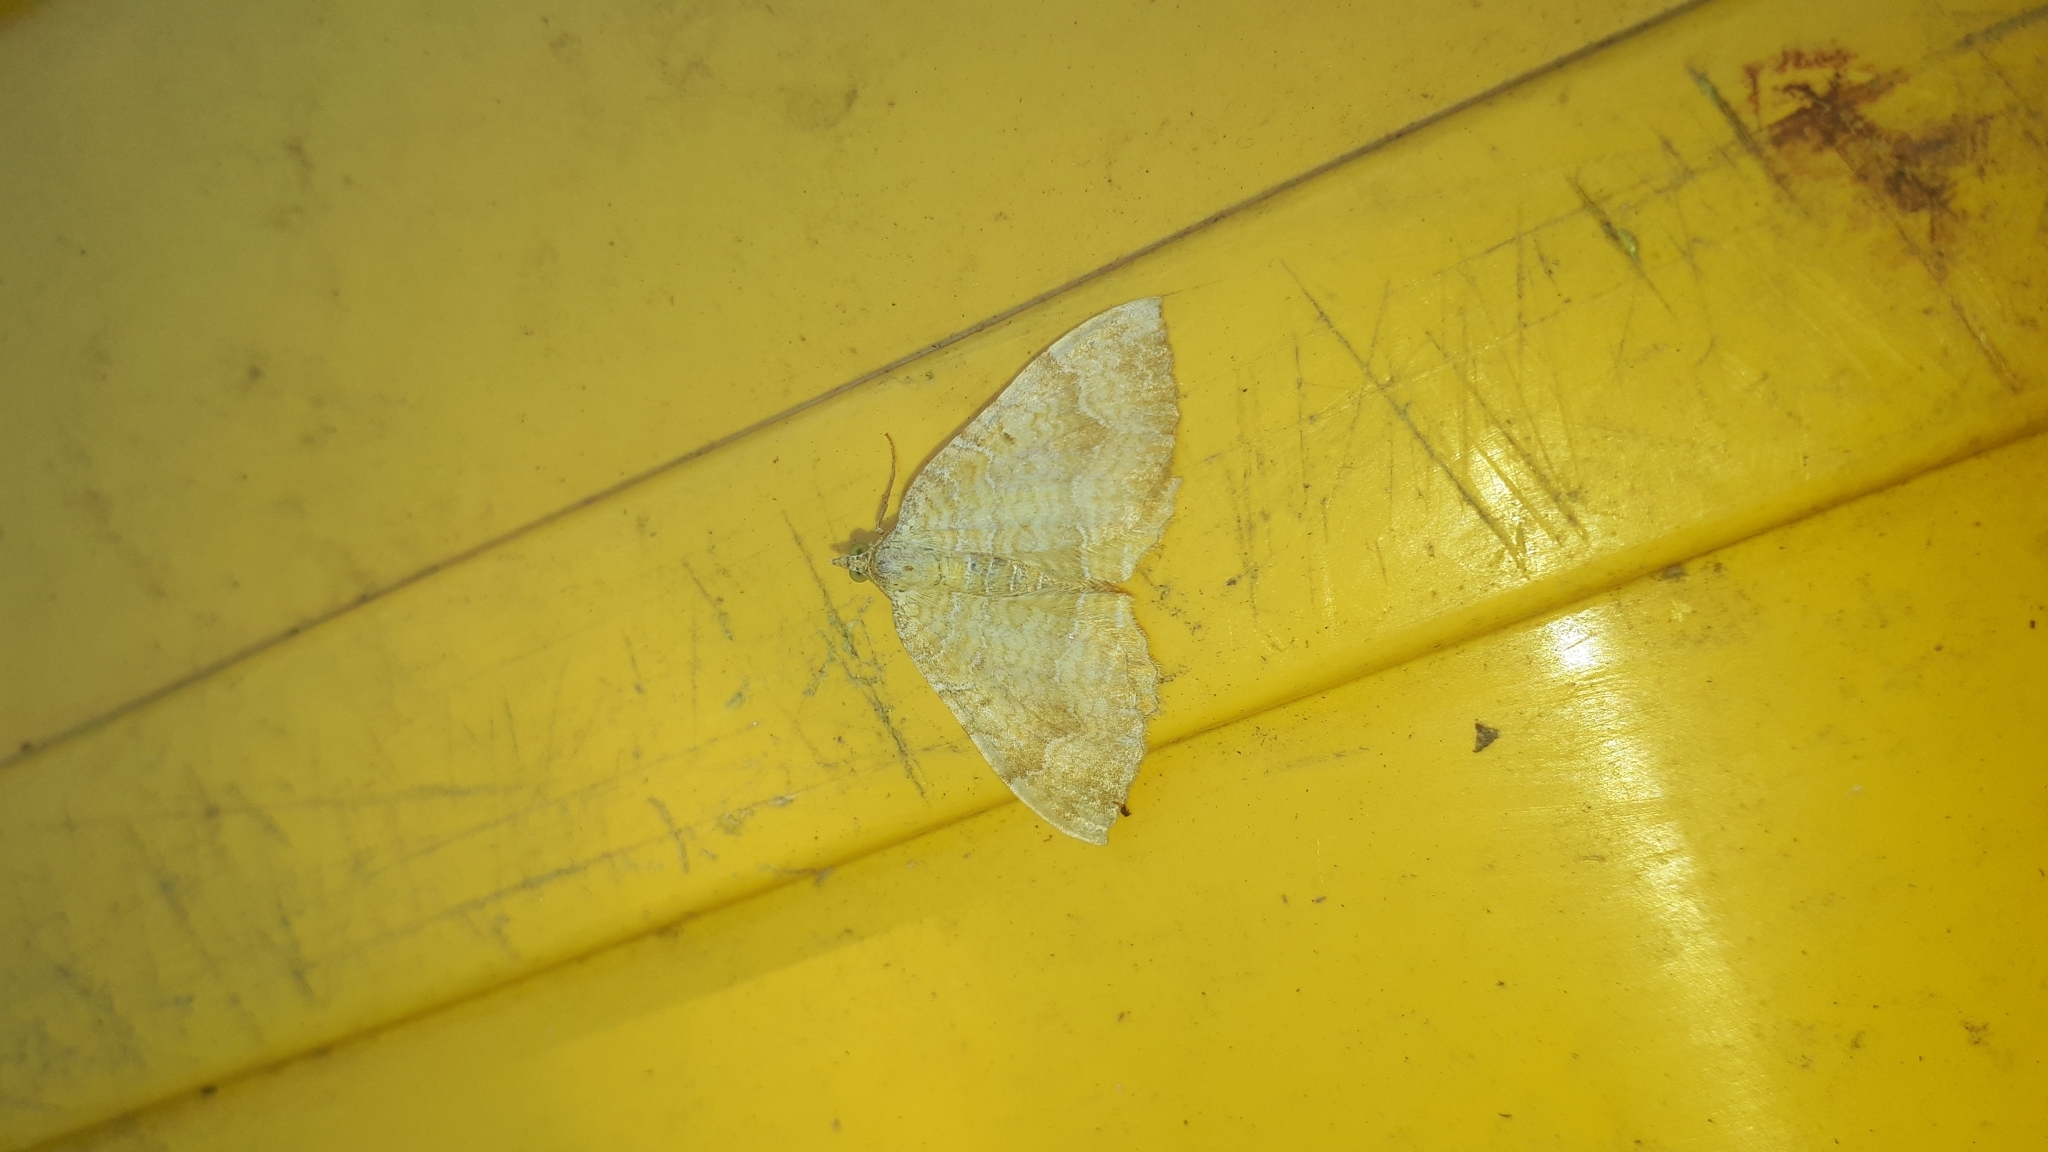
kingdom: Animalia
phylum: Arthropoda
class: Insecta
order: Lepidoptera
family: Geometridae
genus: Camptogramma
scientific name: Camptogramma bilineata
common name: Yellow shell
